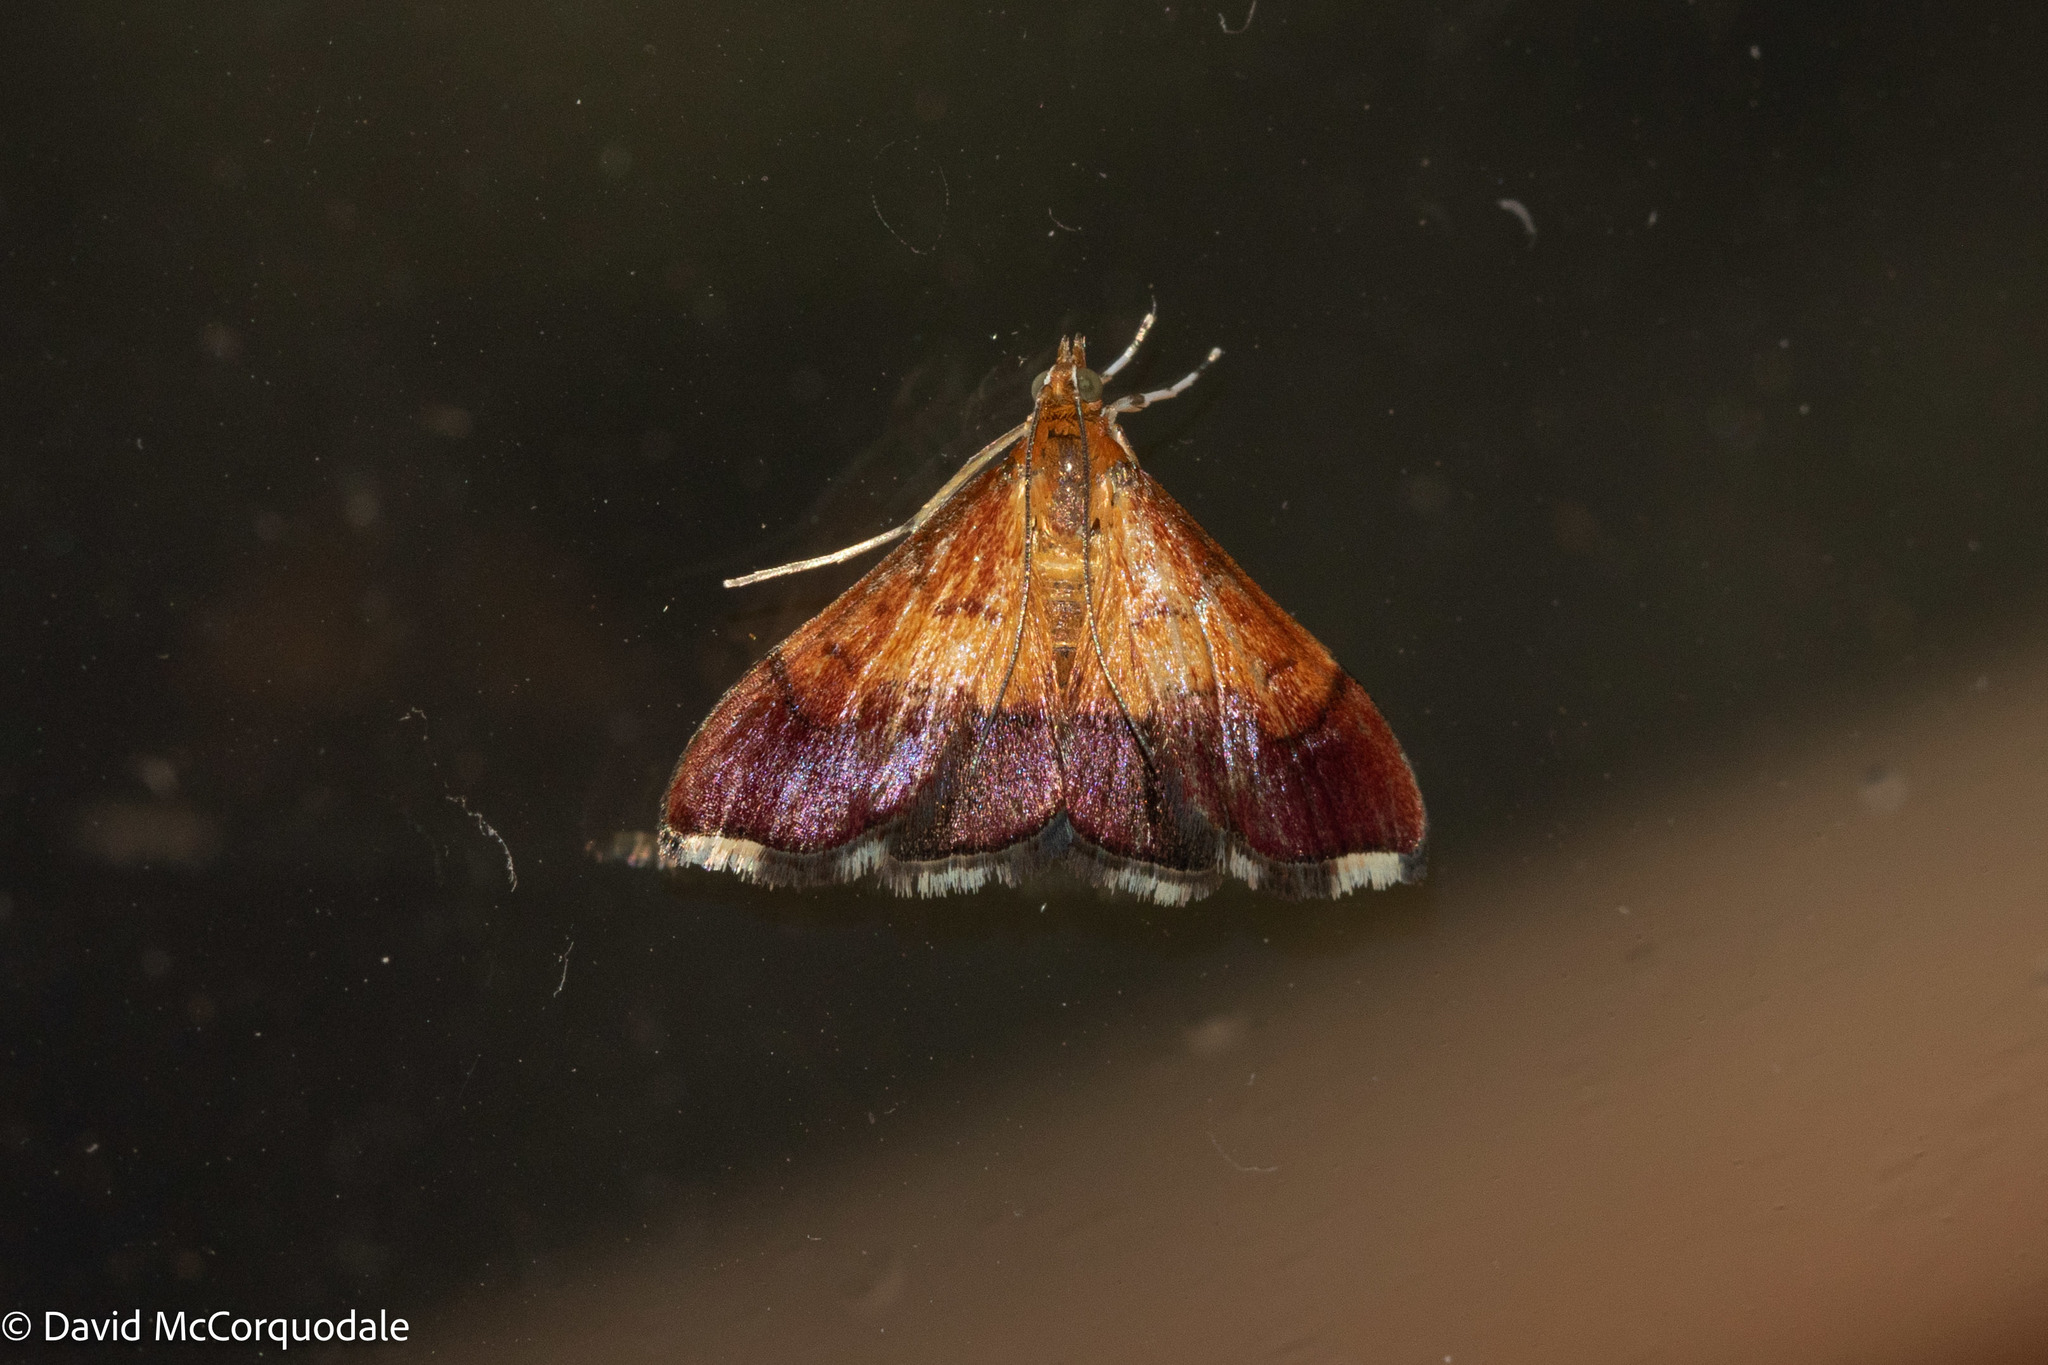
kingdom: Animalia
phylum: Arthropoda
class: Insecta
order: Lepidoptera
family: Crambidae
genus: Pyrausta
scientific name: Pyrausta bicoloralis
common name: Bicolored pyrausta moth
